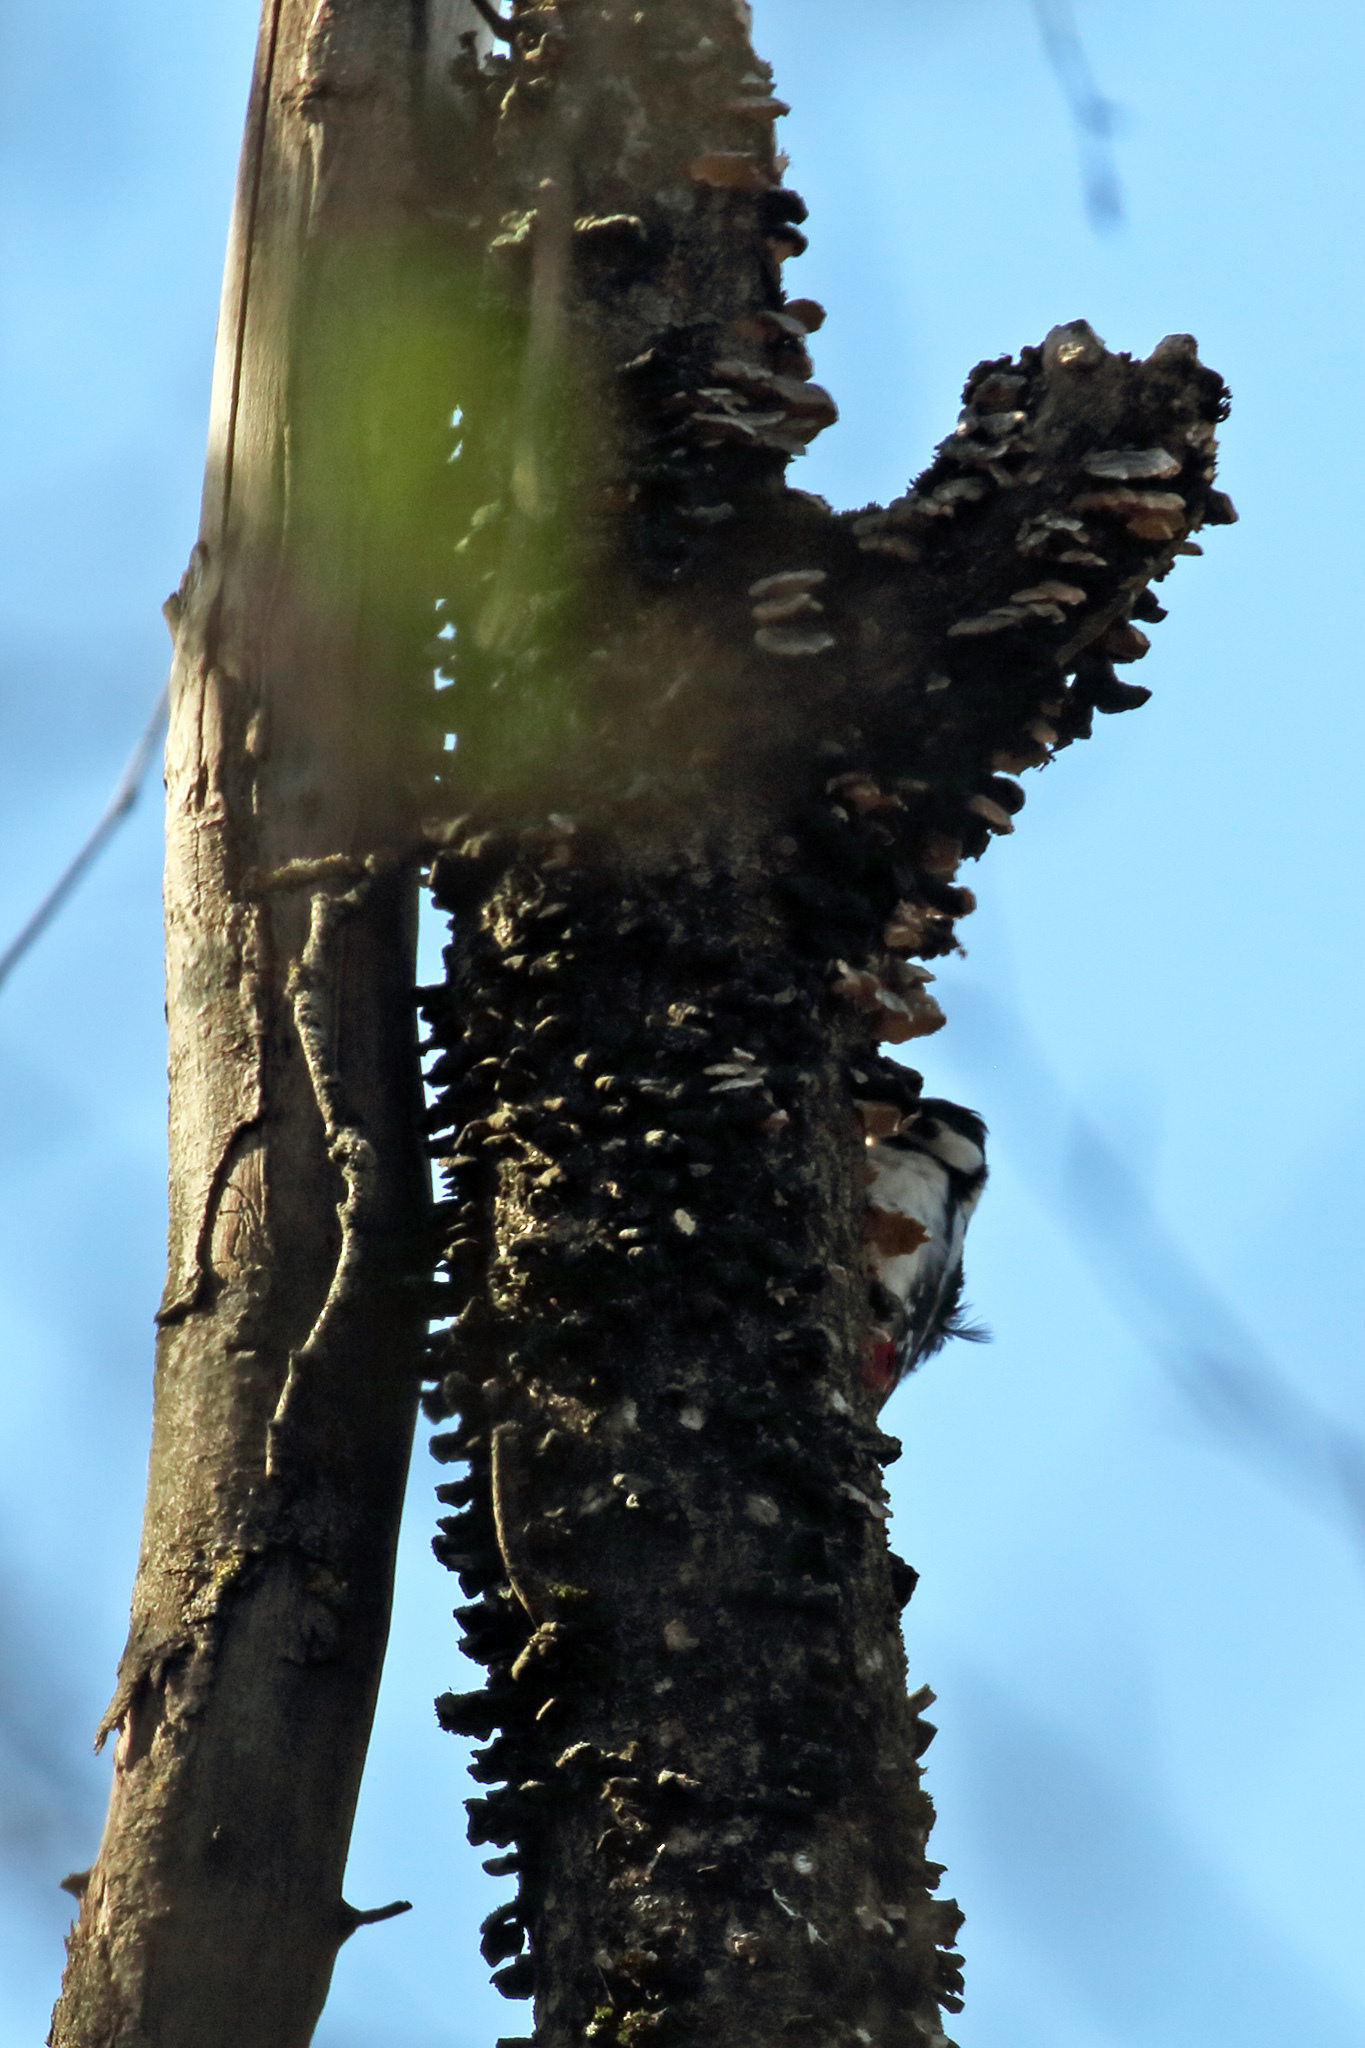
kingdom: Animalia
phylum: Chordata
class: Aves
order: Piciformes
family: Picidae
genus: Dendrocopos
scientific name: Dendrocopos major
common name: Great spotted woodpecker
